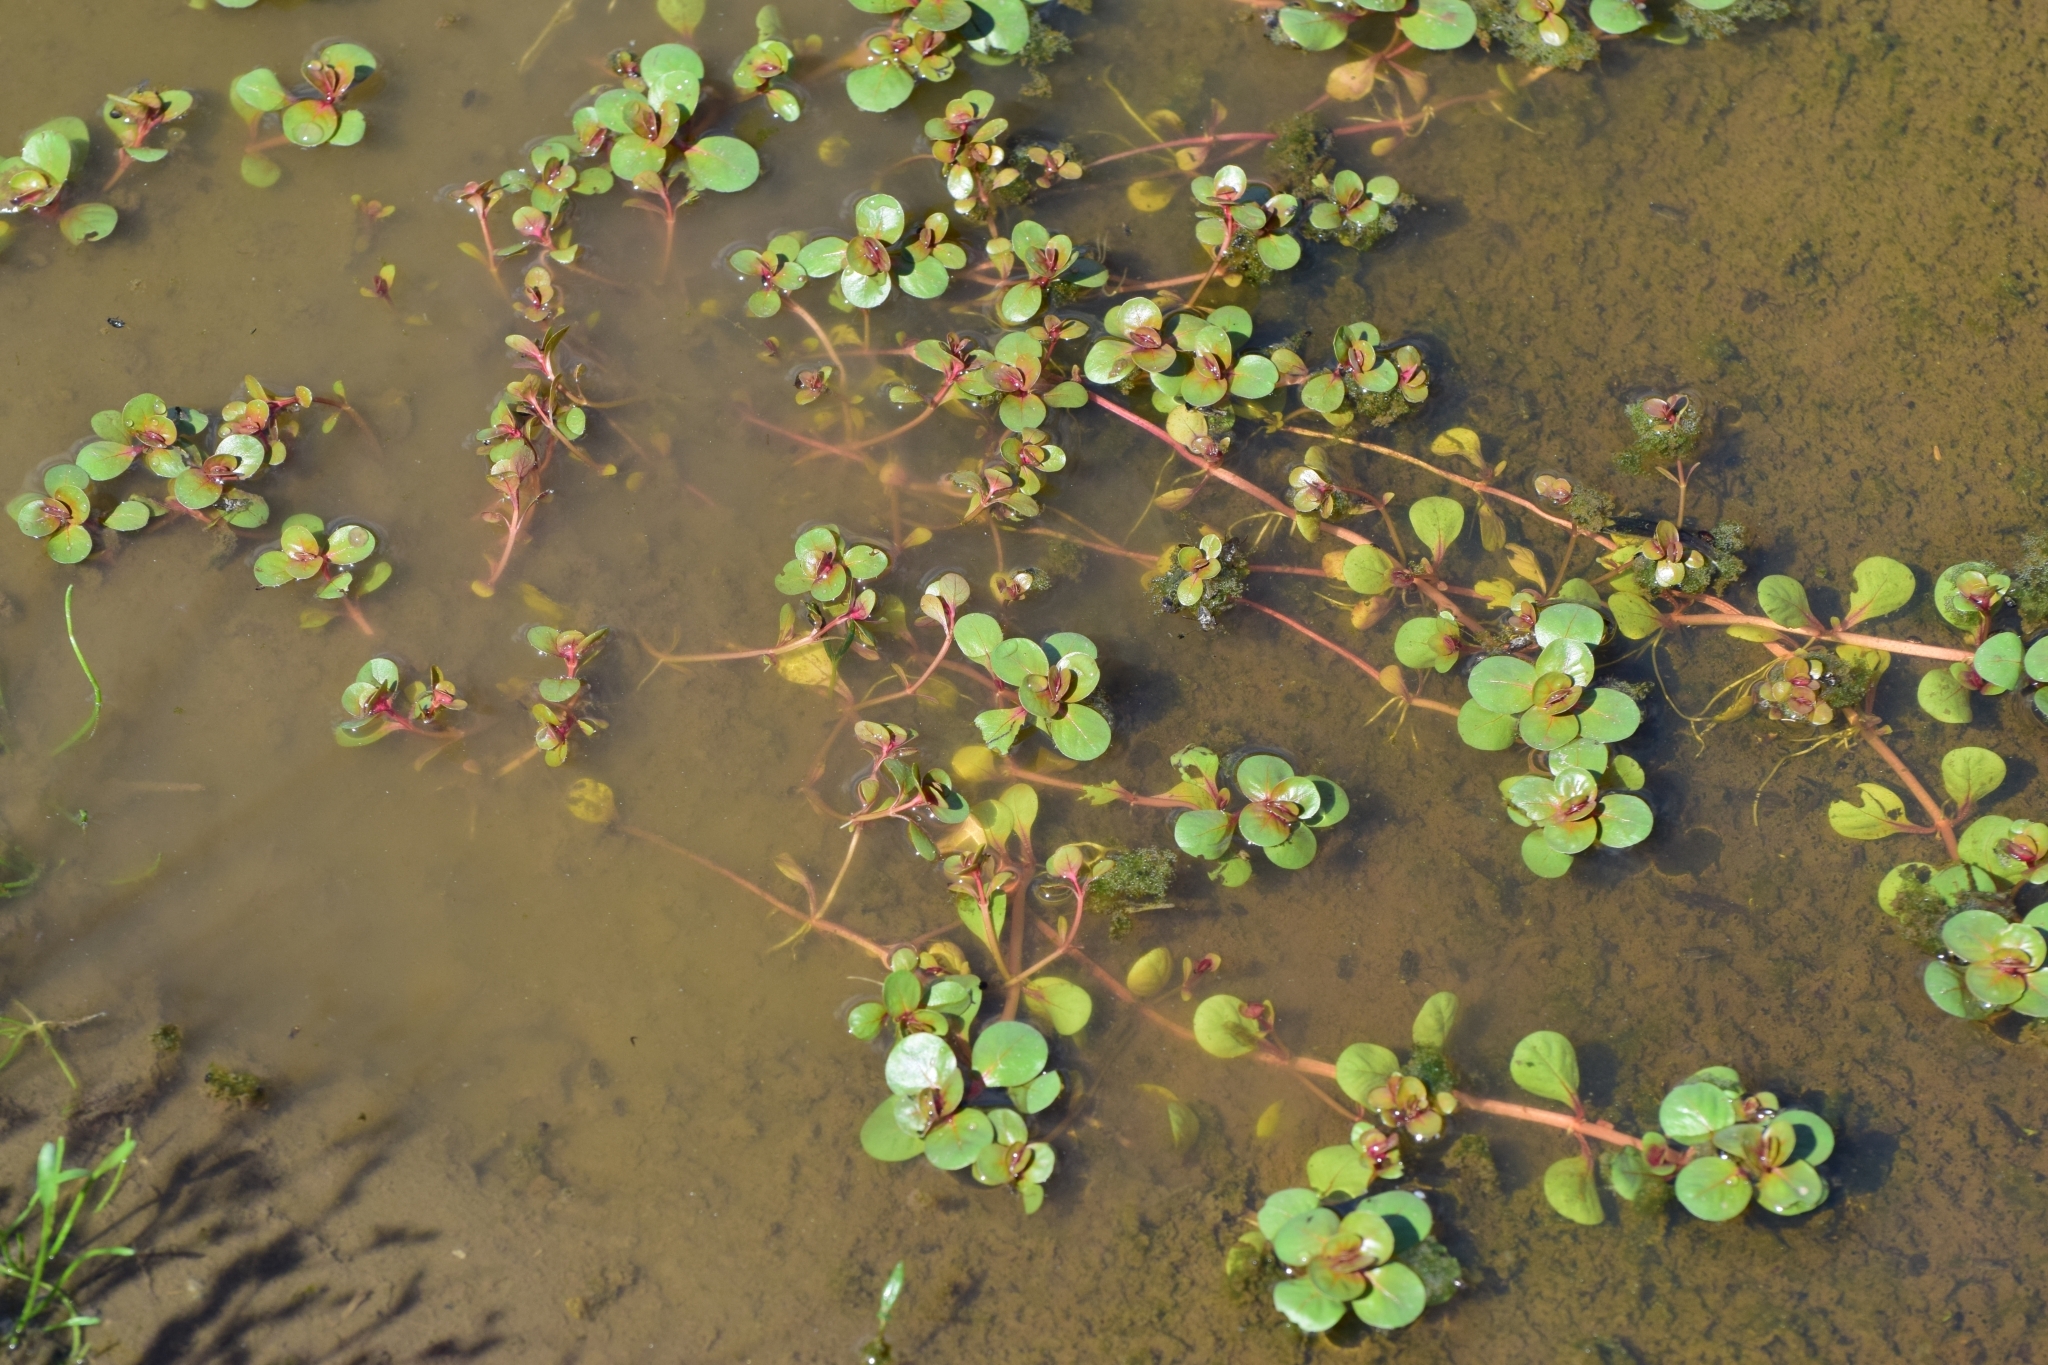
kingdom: Plantae
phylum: Tracheophyta
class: Magnoliopsida
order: Myrtales
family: Lythraceae
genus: Lythrum
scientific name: Lythrum portula
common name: Water purslane
